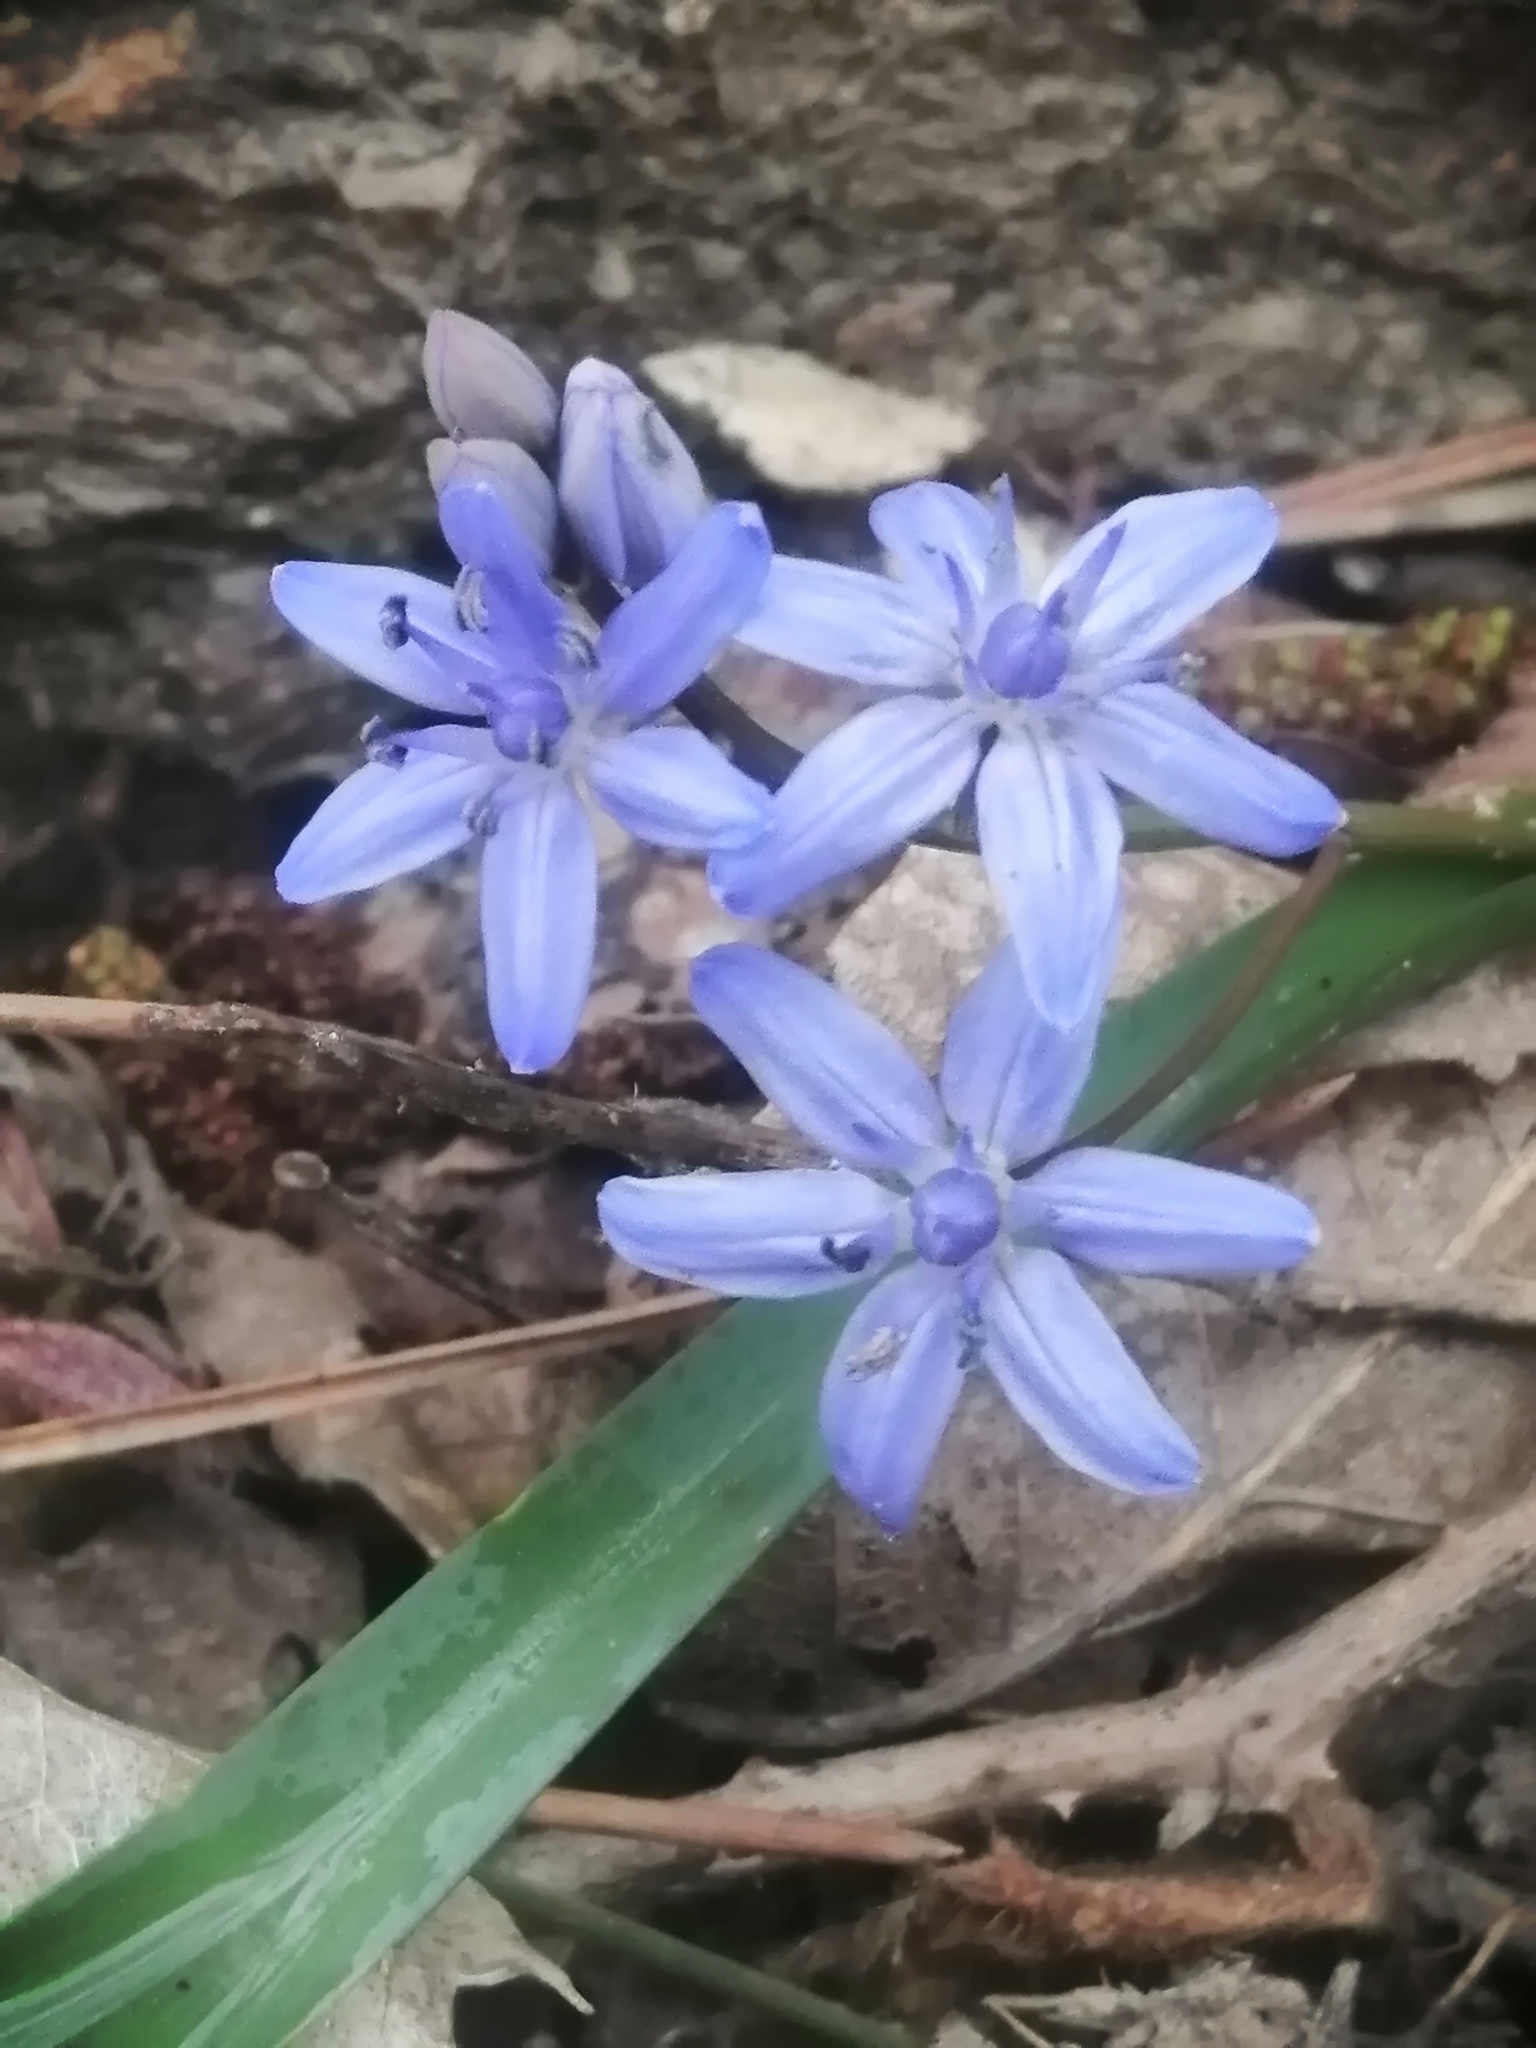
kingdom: Plantae
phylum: Tracheophyta
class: Liliopsida
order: Asparagales
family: Asparagaceae
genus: Scilla
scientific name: Scilla bifolia
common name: Alpine squill
